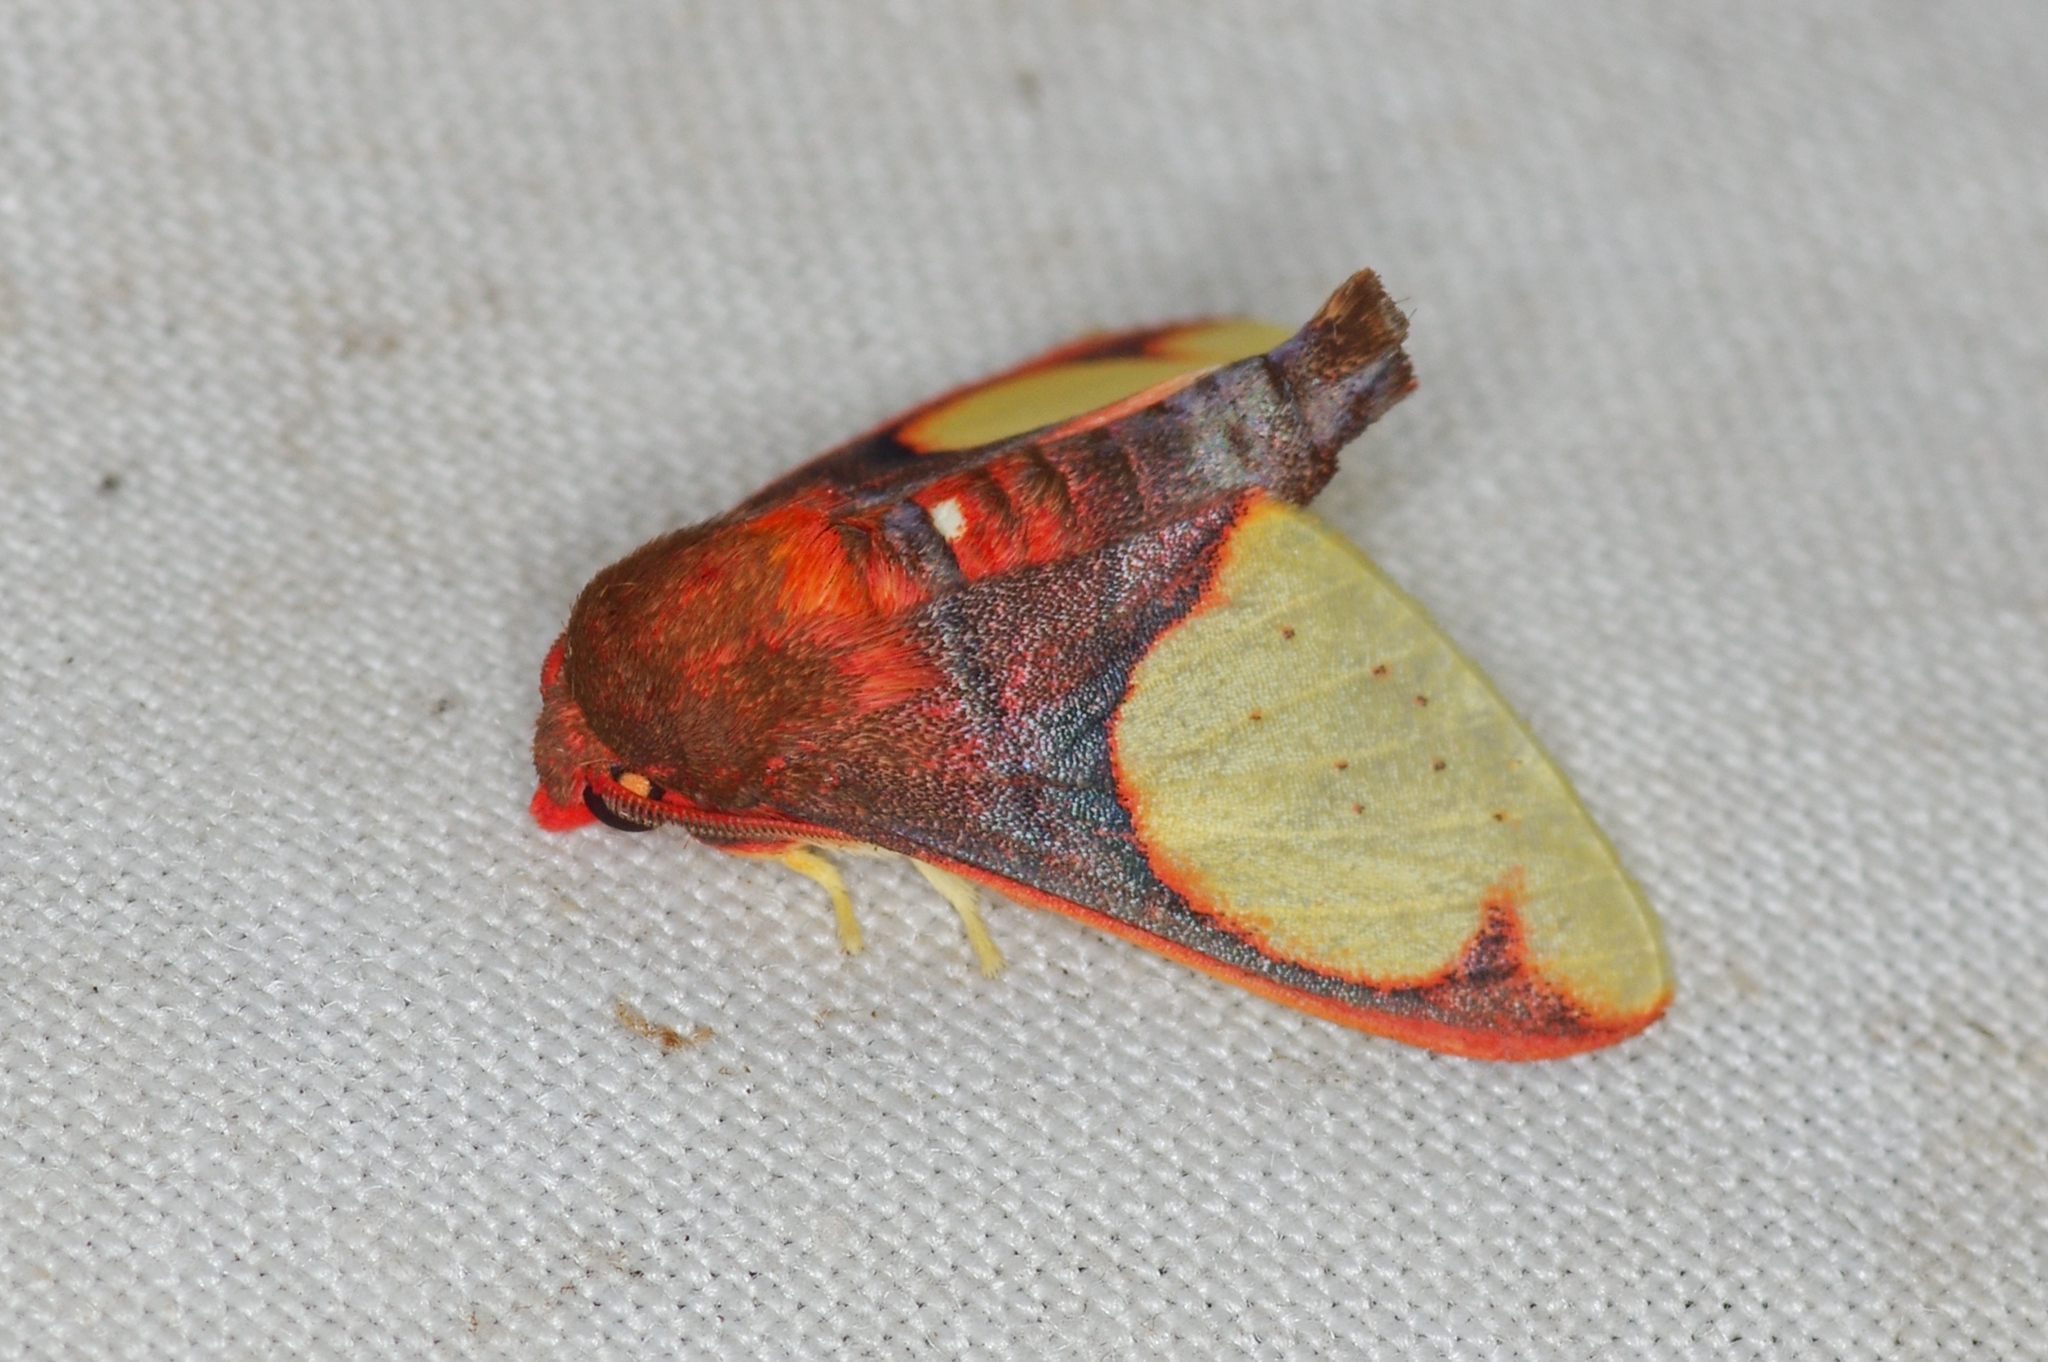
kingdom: Animalia
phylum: Arthropoda
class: Insecta
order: Lepidoptera
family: Erebidae
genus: Neonerita
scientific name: Neonerita incarnata
